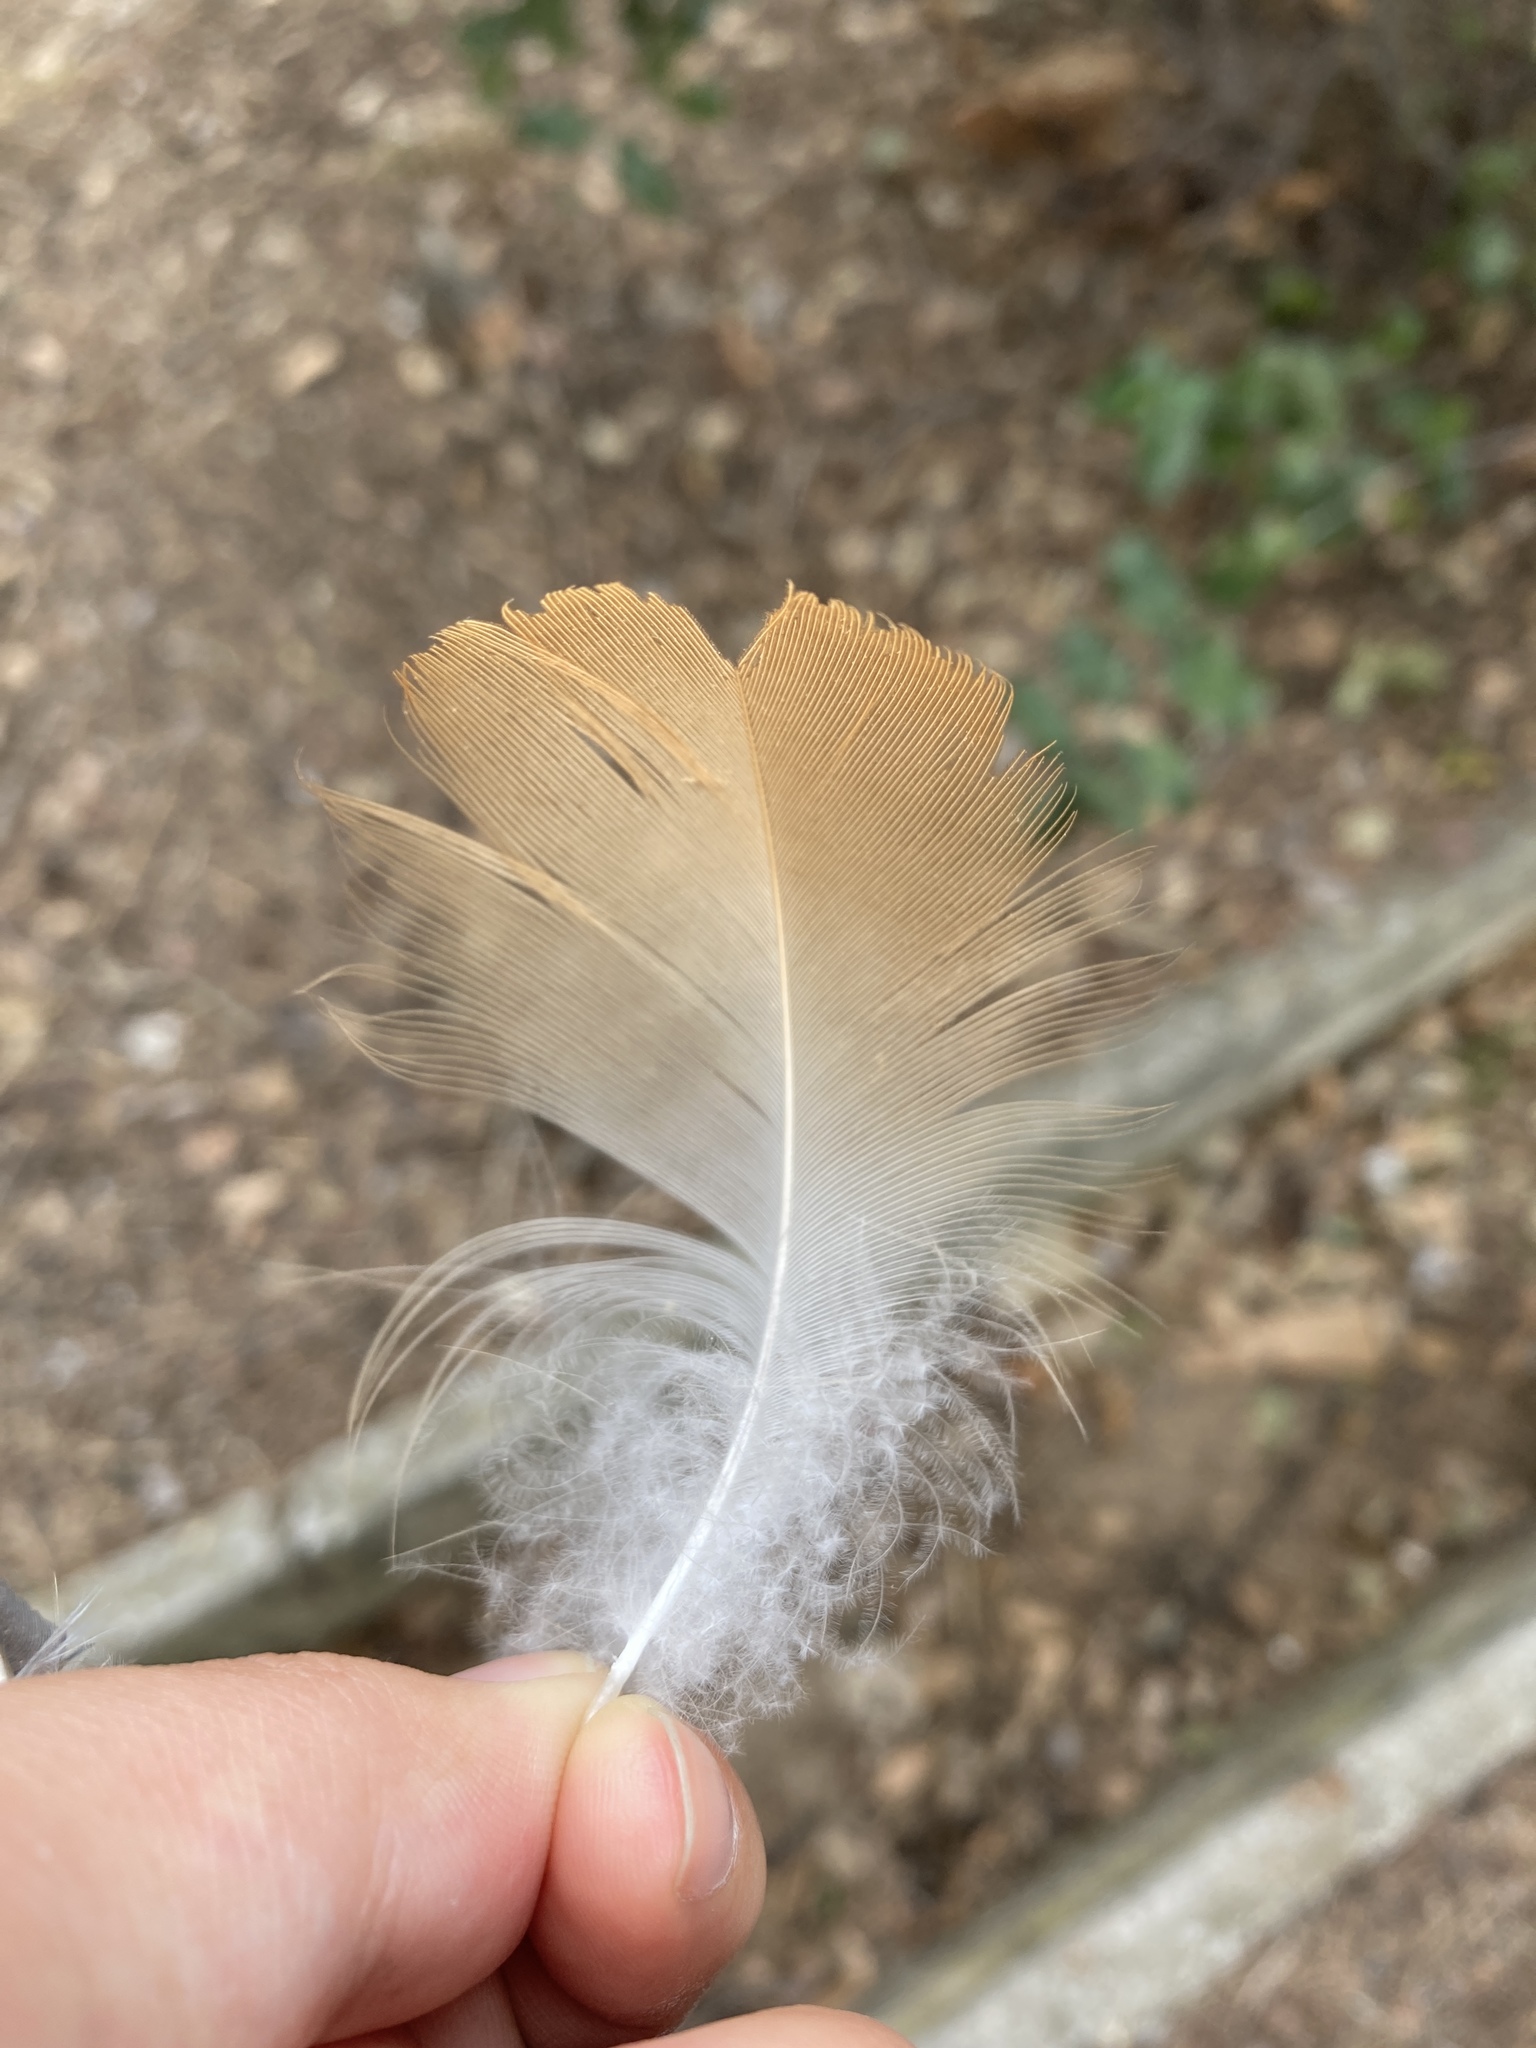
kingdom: Animalia
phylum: Chordata
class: Aves
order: Anseriformes
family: Anatidae
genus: Tadorna
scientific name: Tadorna ferruginea
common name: Ruddy shelduck
